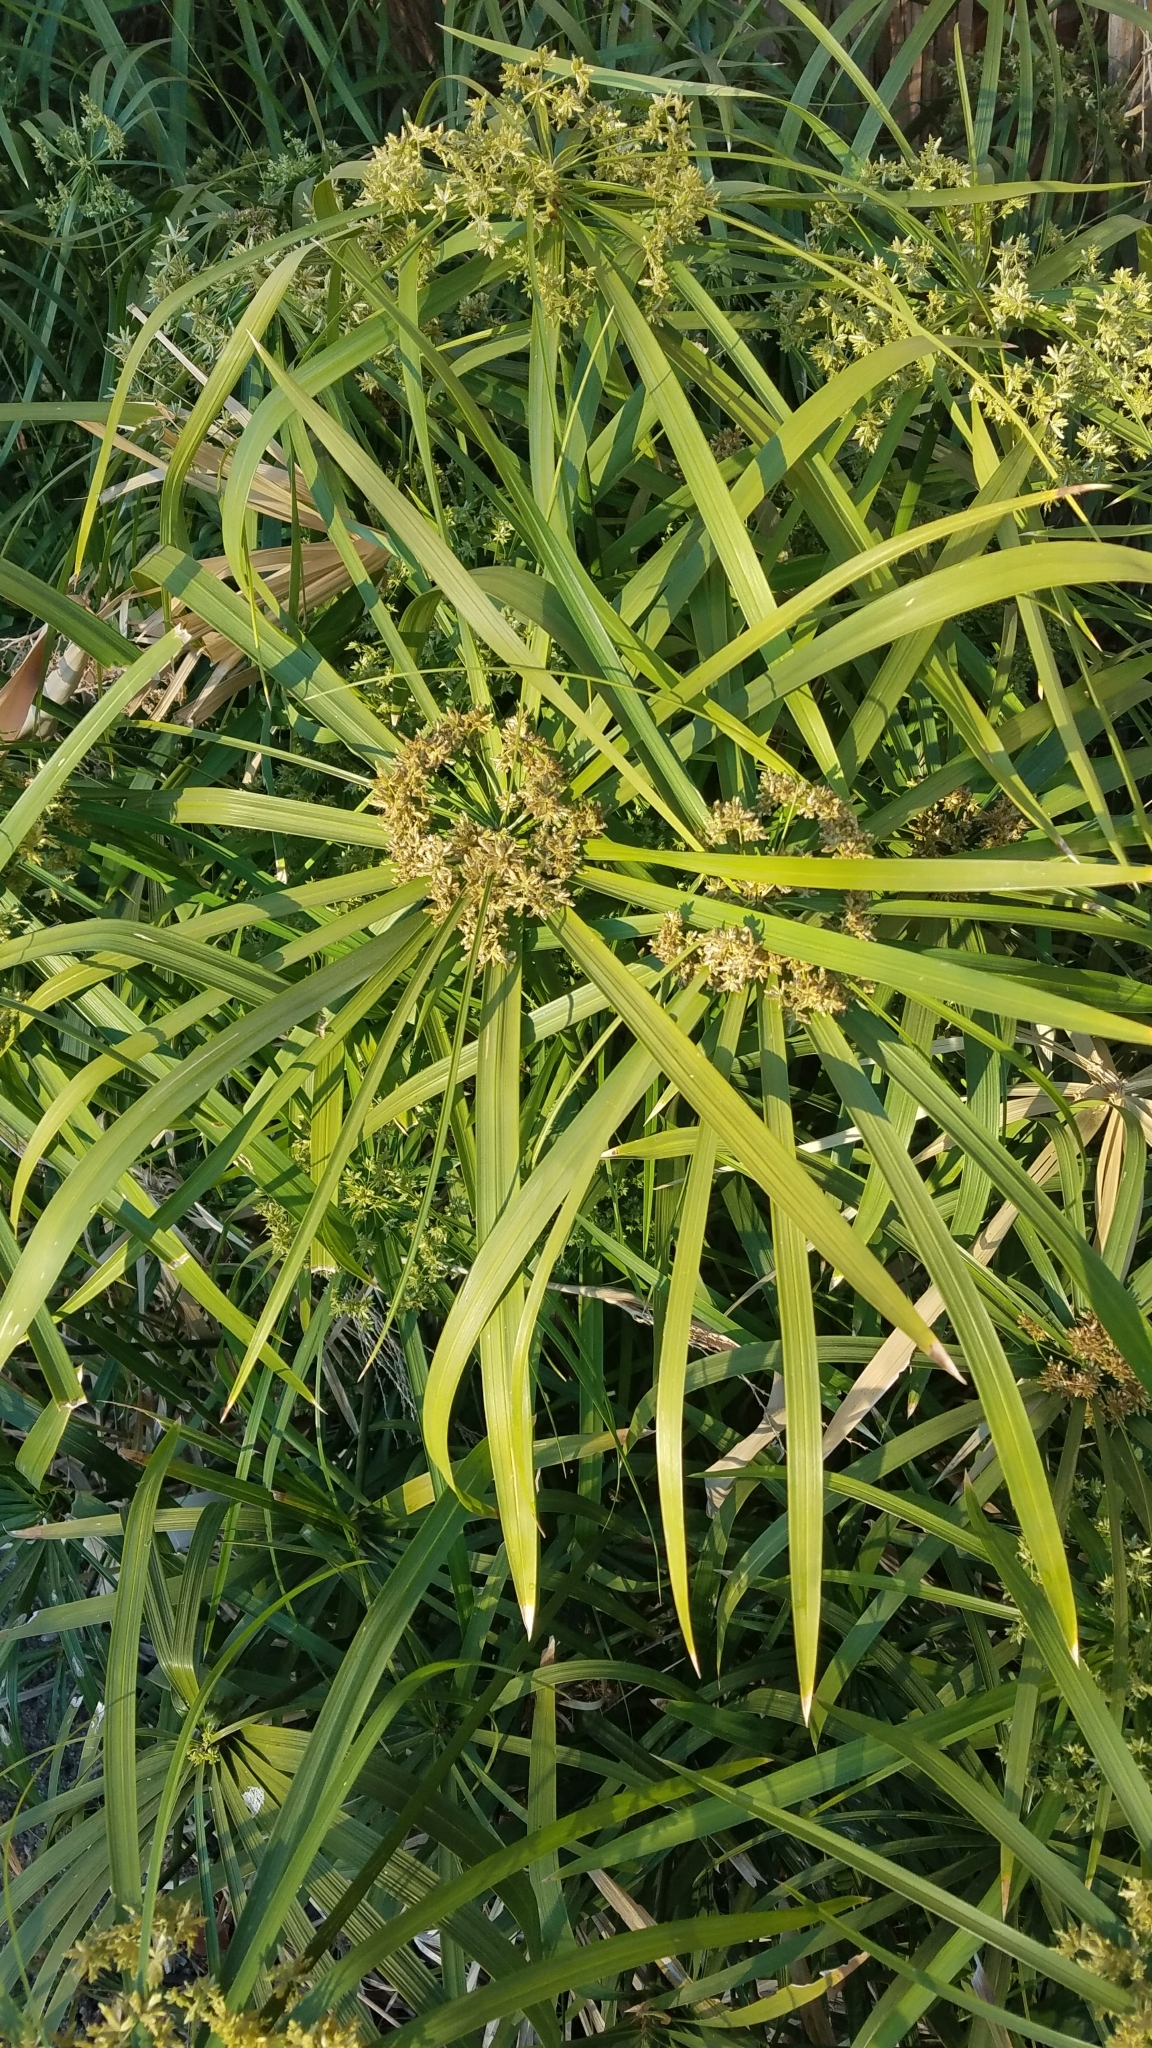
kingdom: Plantae
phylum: Tracheophyta
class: Liliopsida
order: Poales
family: Cyperaceae
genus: Cyperus
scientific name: Cyperus alternifolius
